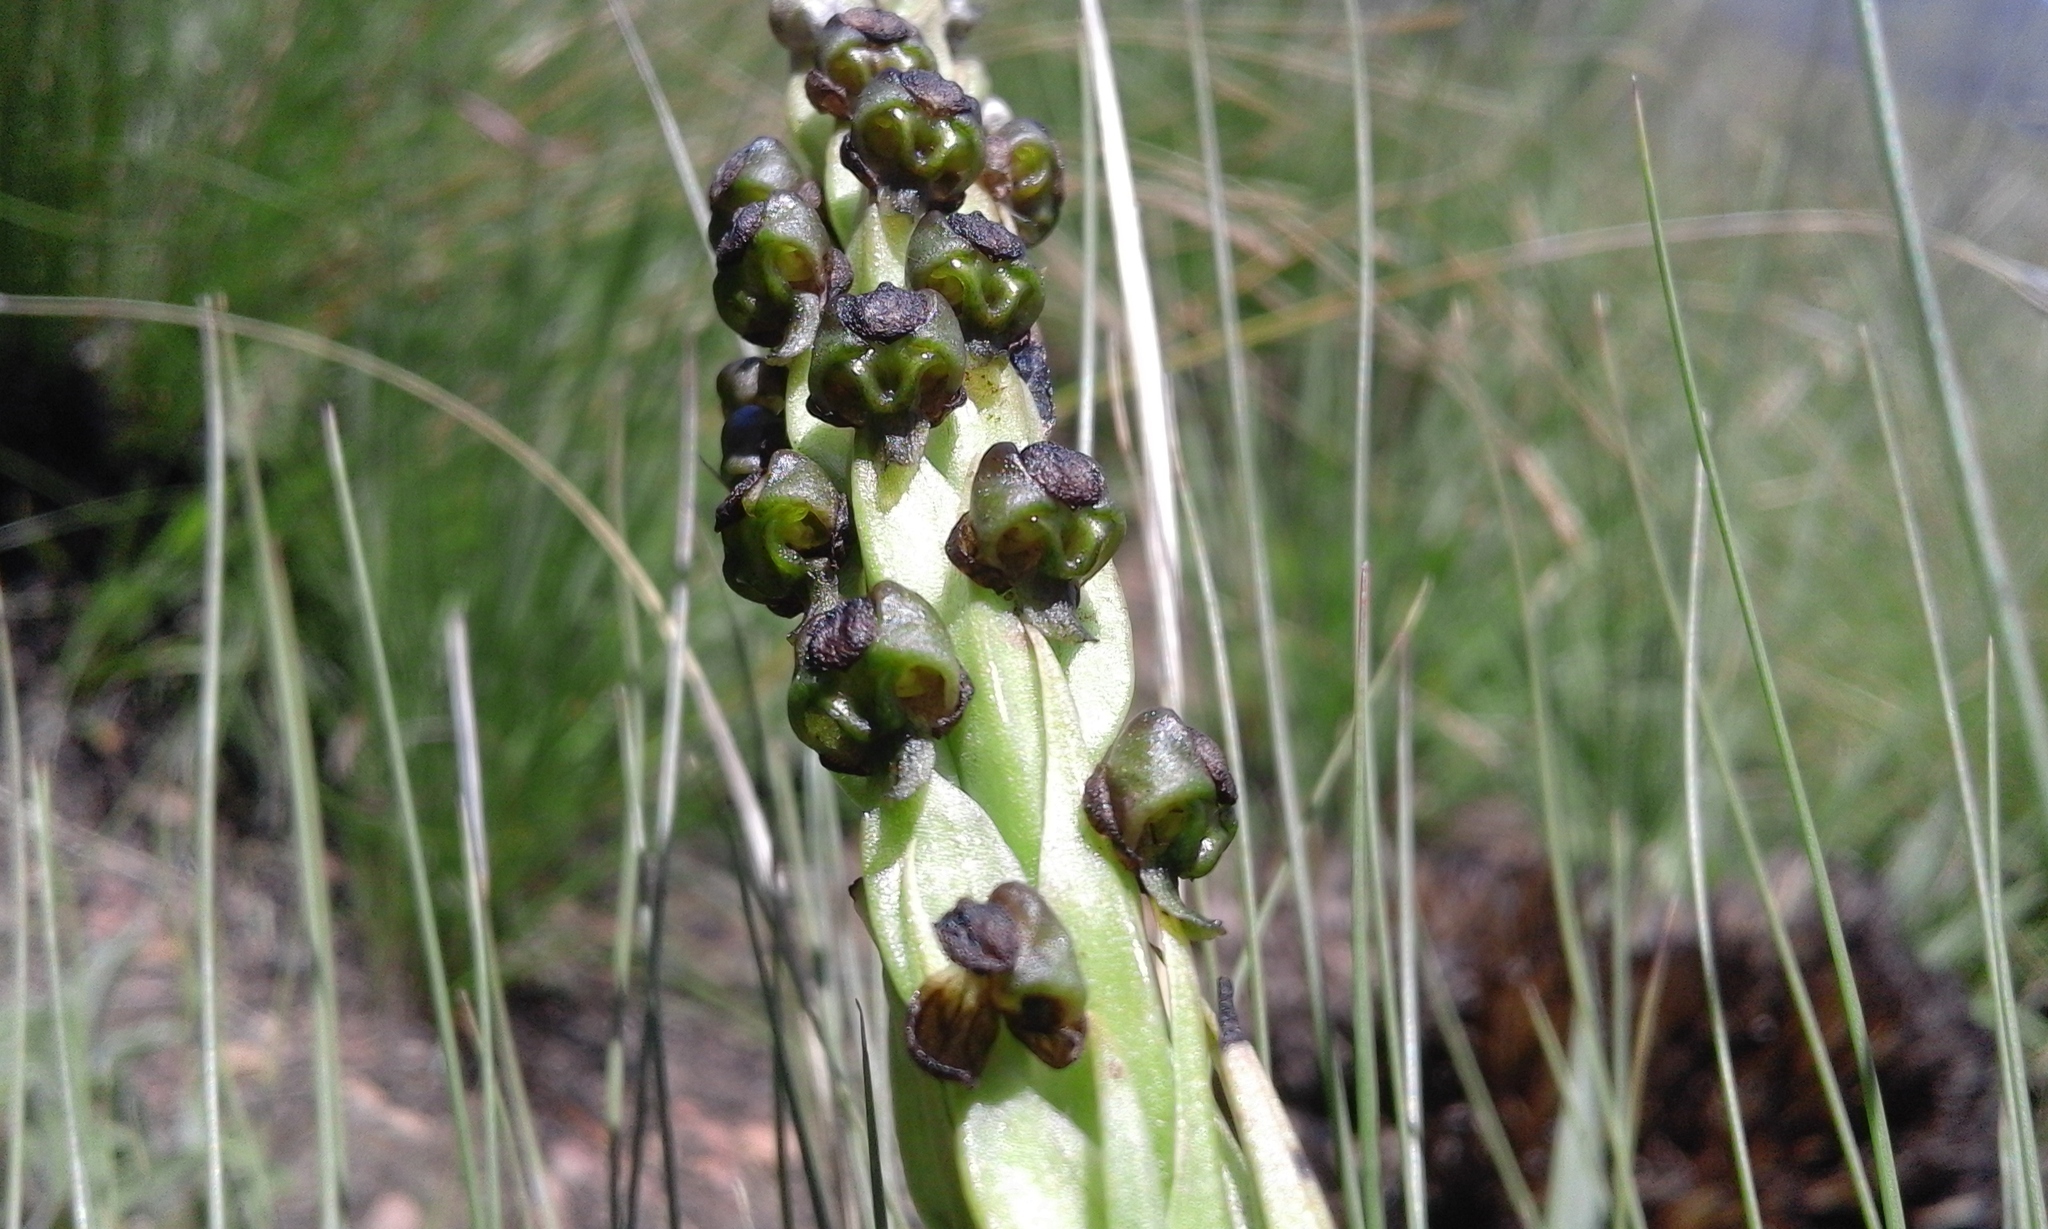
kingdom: Plantae
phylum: Tracheophyta
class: Liliopsida
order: Asparagales
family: Orchidaceae
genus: Corycium
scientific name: Corycium dracomontanum
